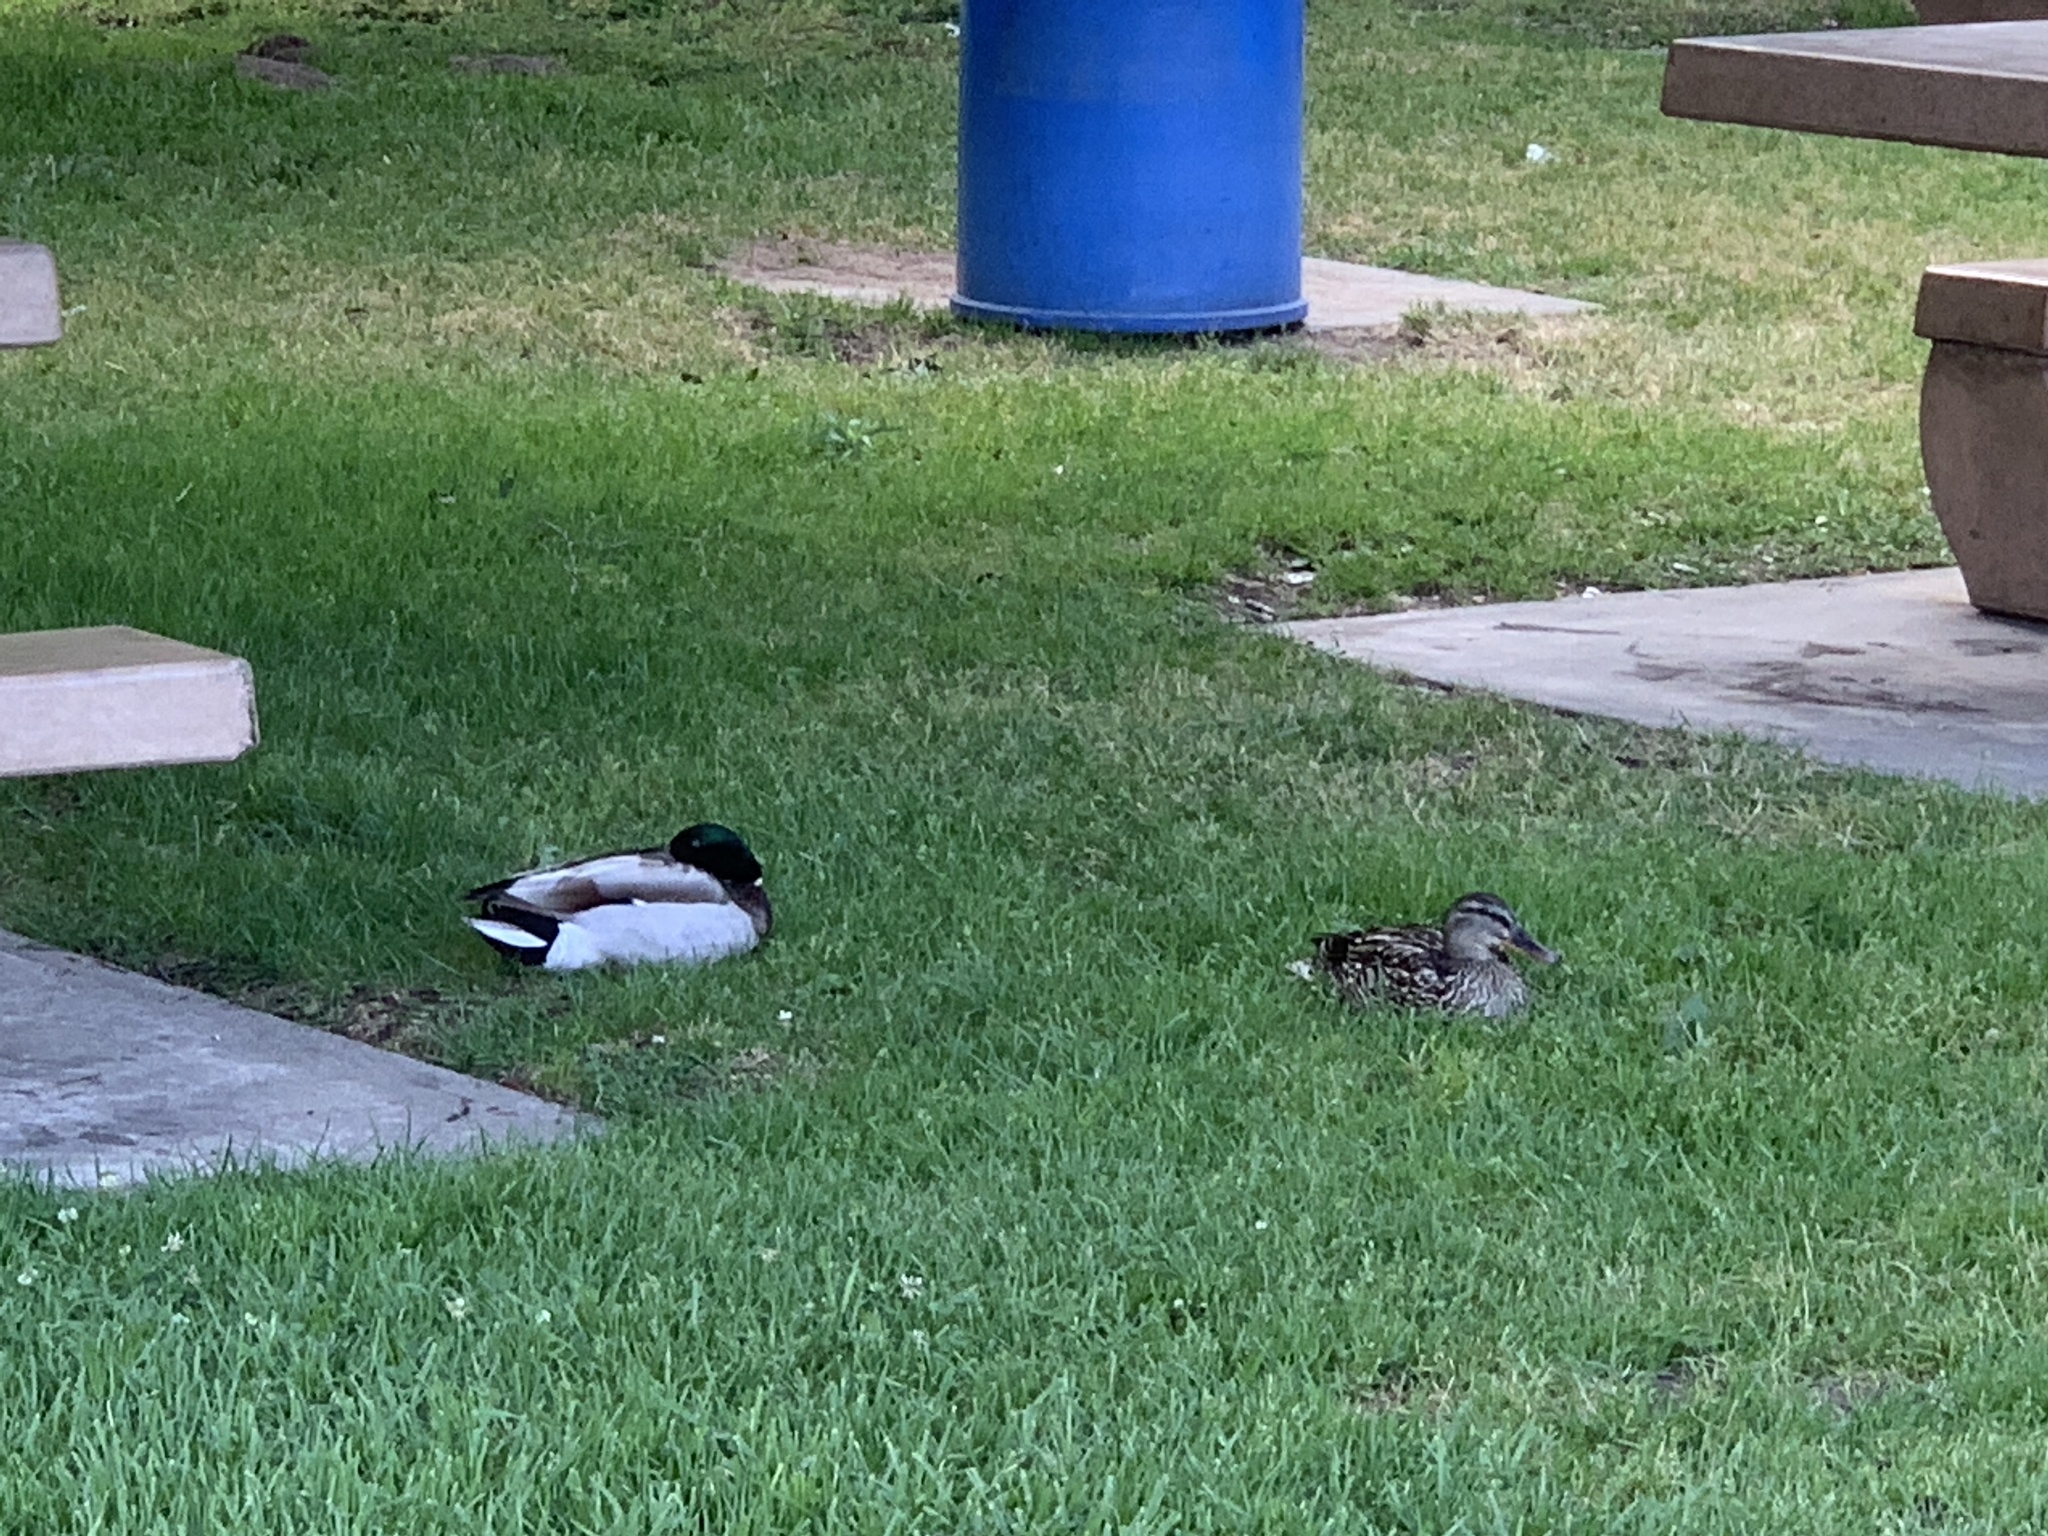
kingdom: Animalia
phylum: Chordata
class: Aves
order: Anseriformes
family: Anatidae
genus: Anas
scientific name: Anas platyrhynchos
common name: Mallard
